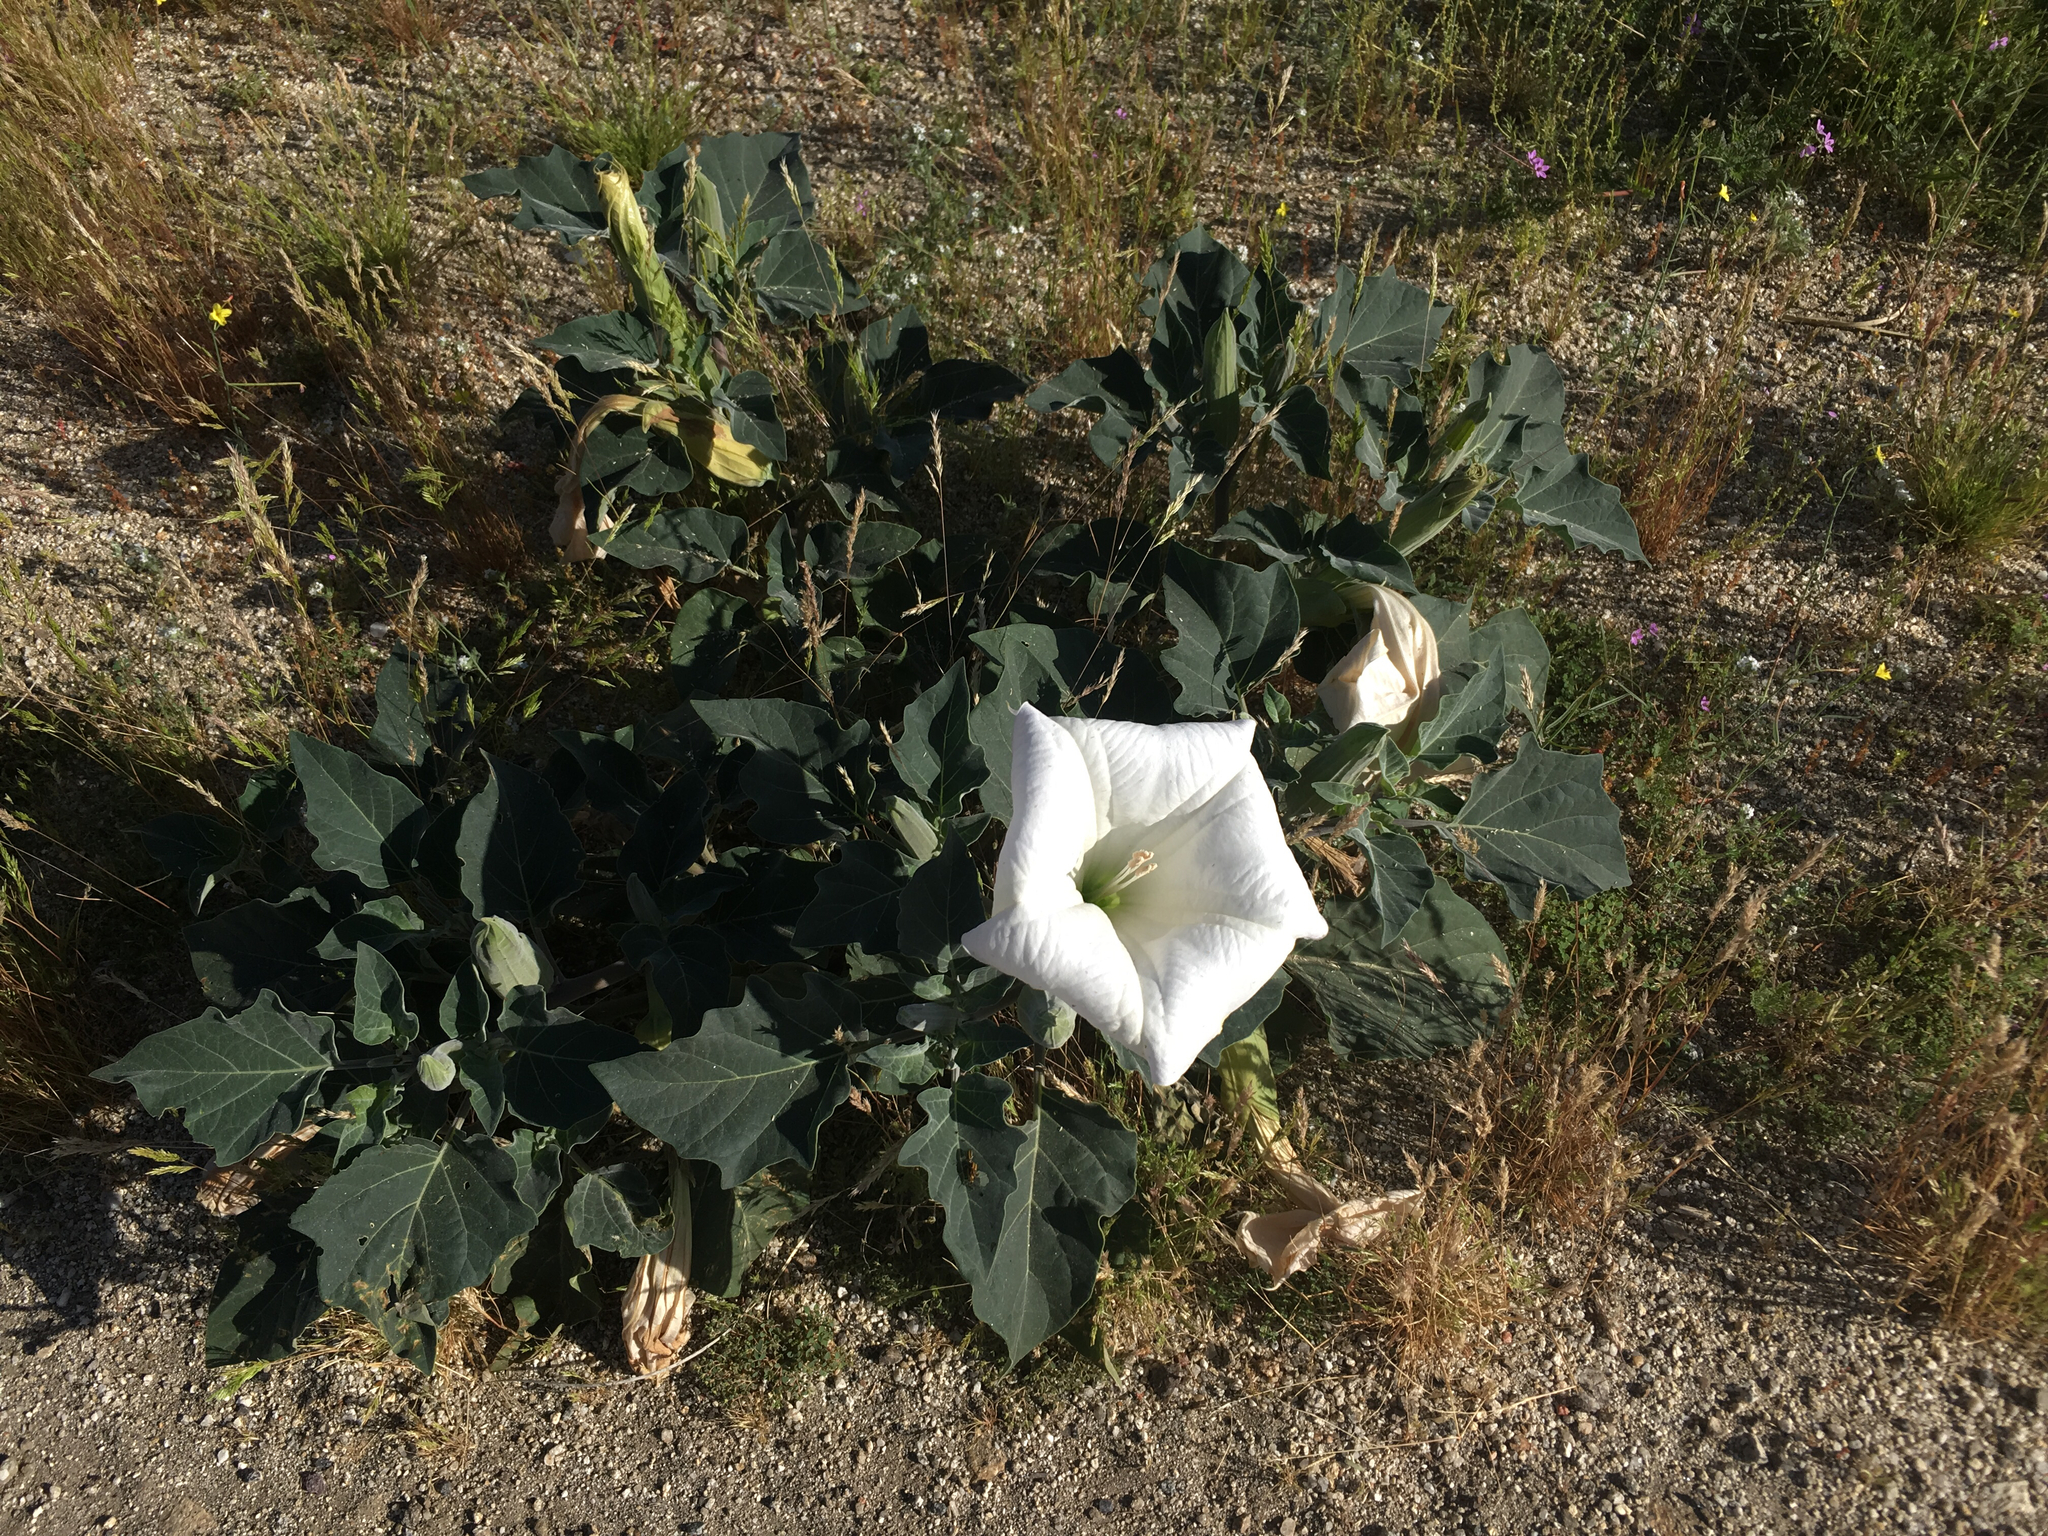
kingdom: Plantae
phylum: Tracheophyta
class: Magnoliopsida
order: Solanales
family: Solanaceae
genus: Datura
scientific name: Datura wrightii
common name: Sacred thorn-apple
